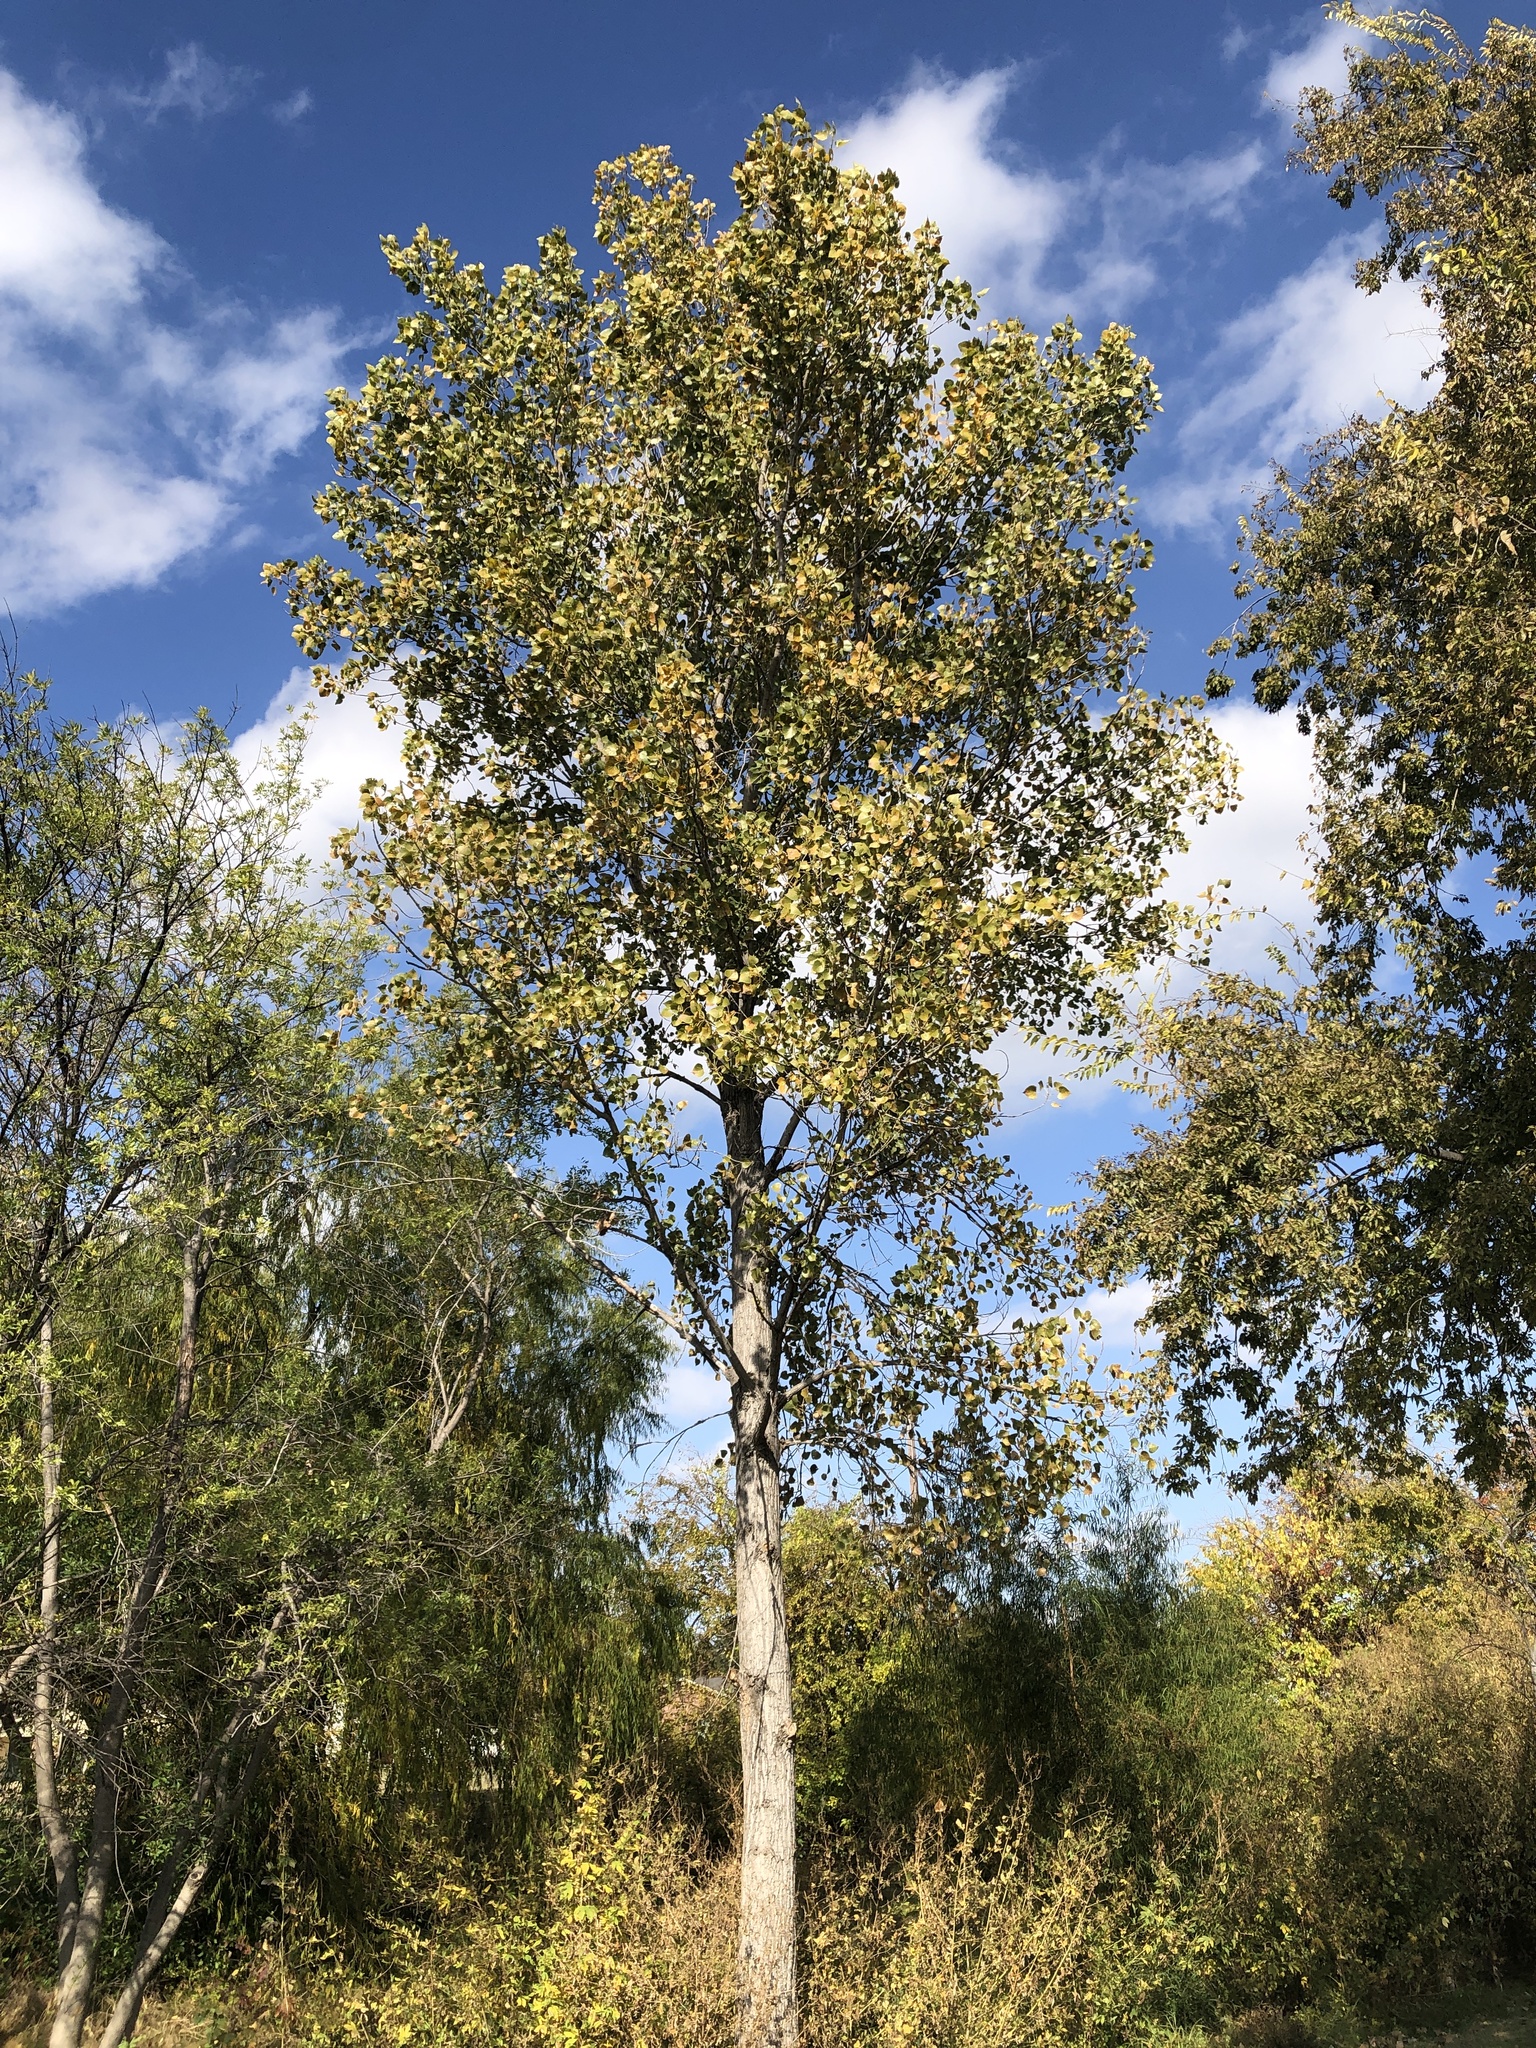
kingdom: Plantae
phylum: Tracheophyta
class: Magnoliopsida
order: Malpighiales
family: Salicaceae
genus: Populus
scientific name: Populus deltoides
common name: Eastern cottonwood
